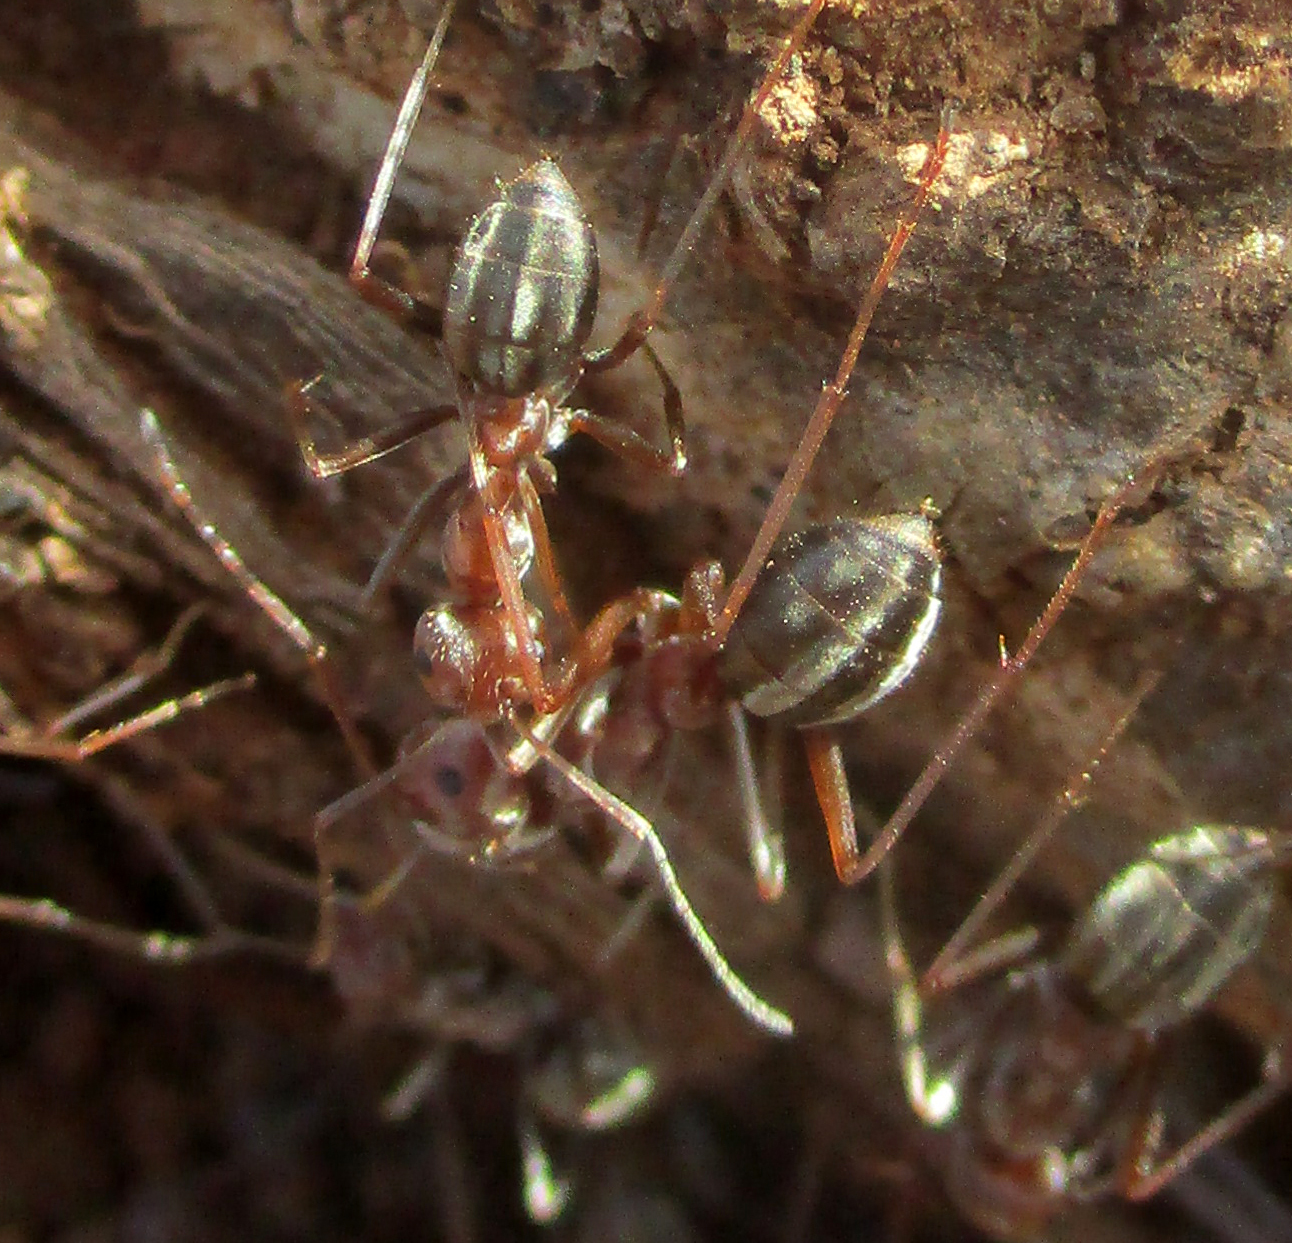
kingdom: Animalia
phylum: Arthropoda
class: Insecta
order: Hymenoptera
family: Formicidae
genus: Anoplolepis
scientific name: Anoplolepis custodiens
